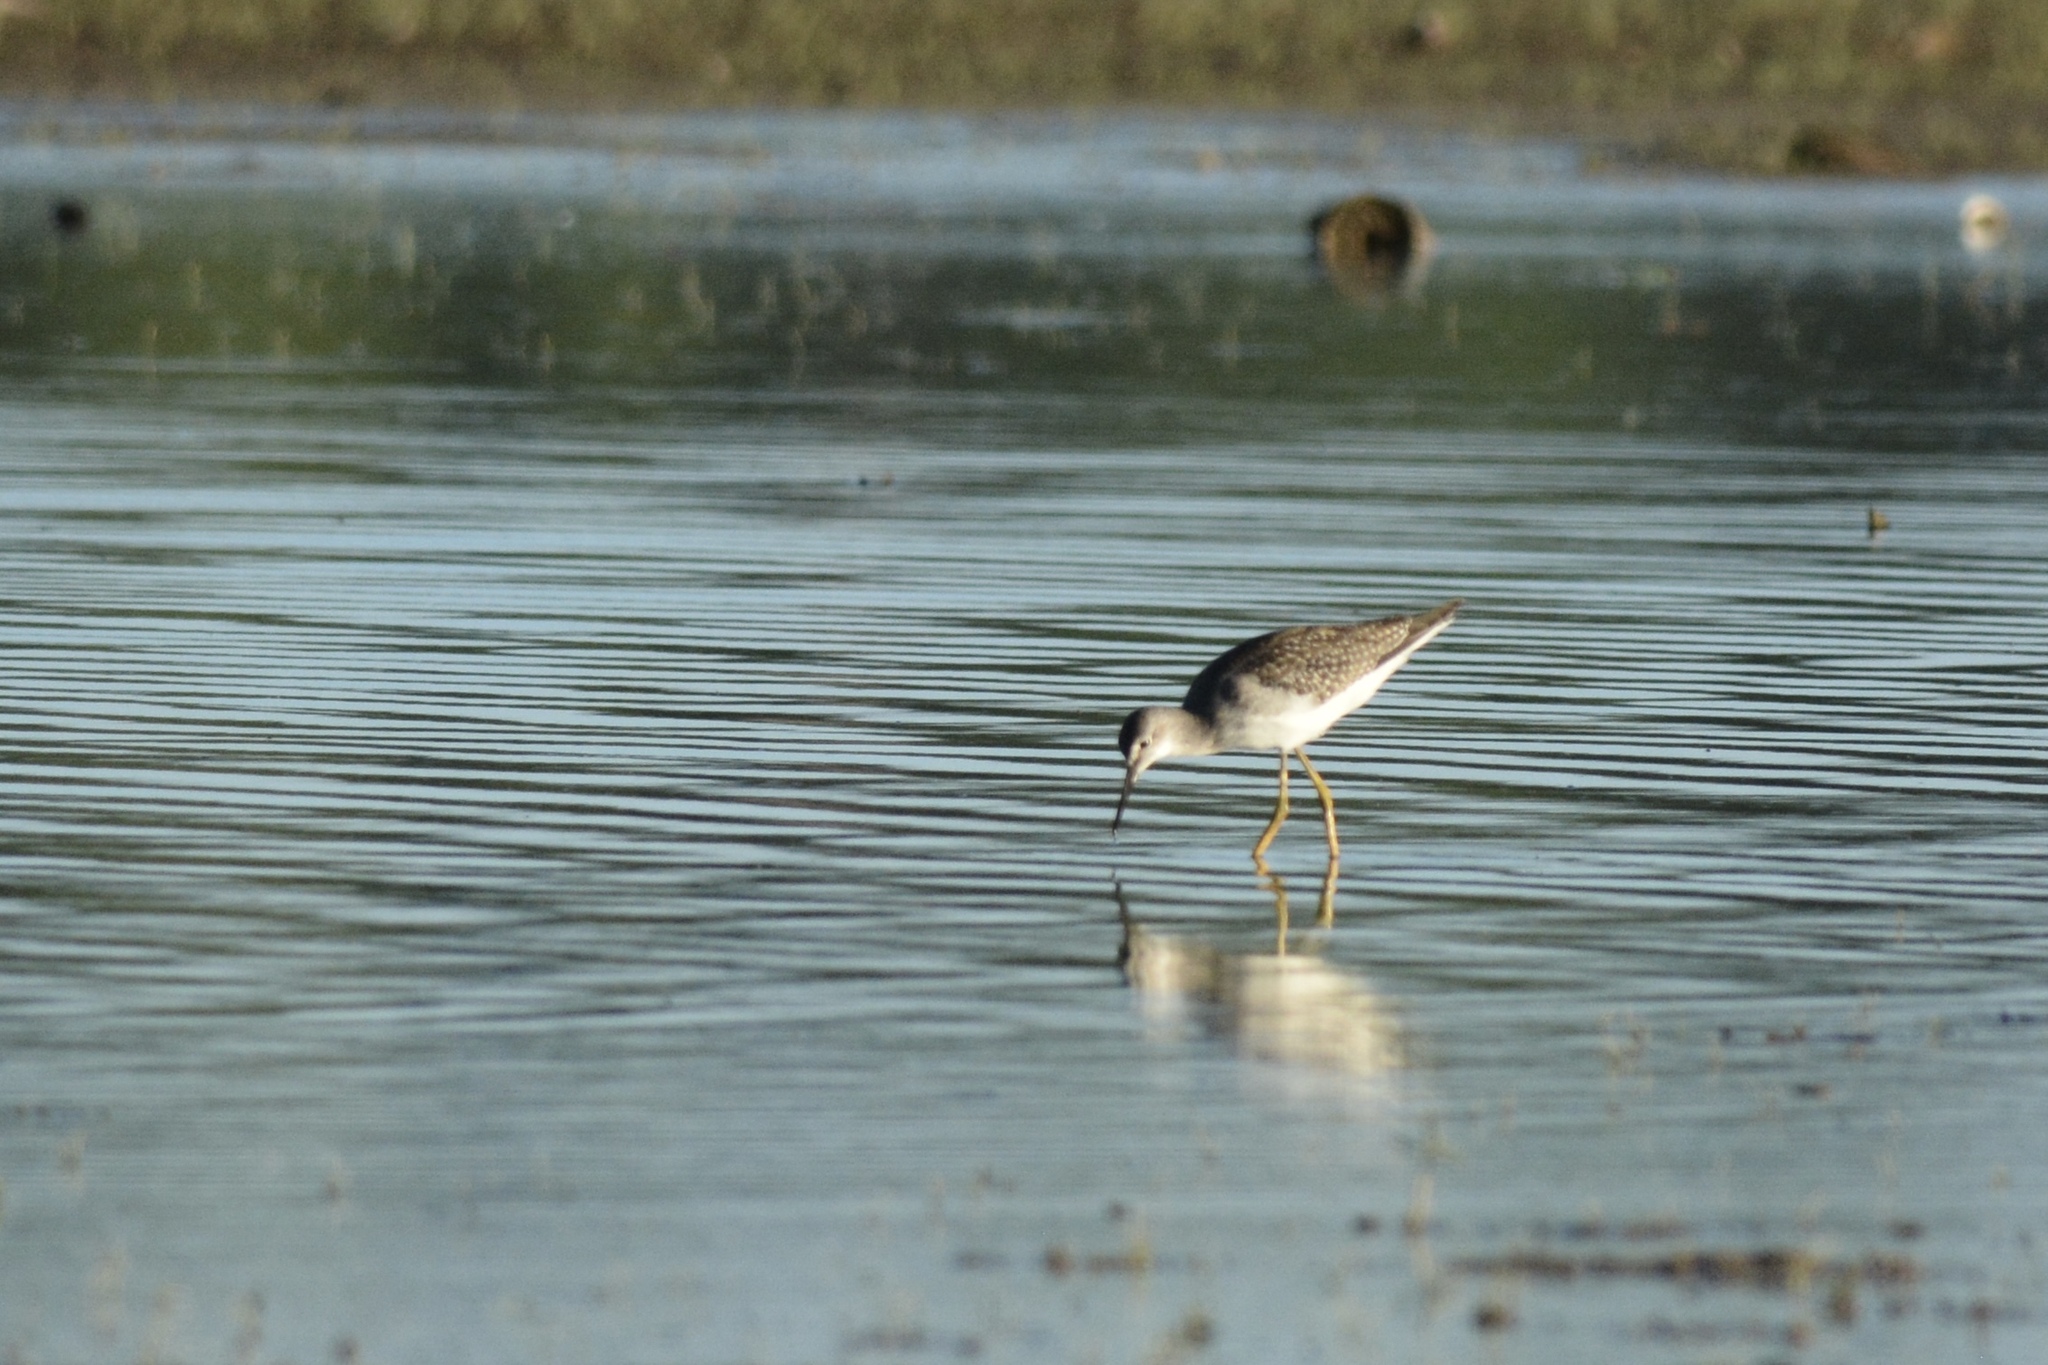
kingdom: Animalia
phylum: Chordata
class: Aves
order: Charadriiformes
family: Scolopacidae
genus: Tringa
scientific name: Tringa flavipes
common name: Lesser yellowlegs
